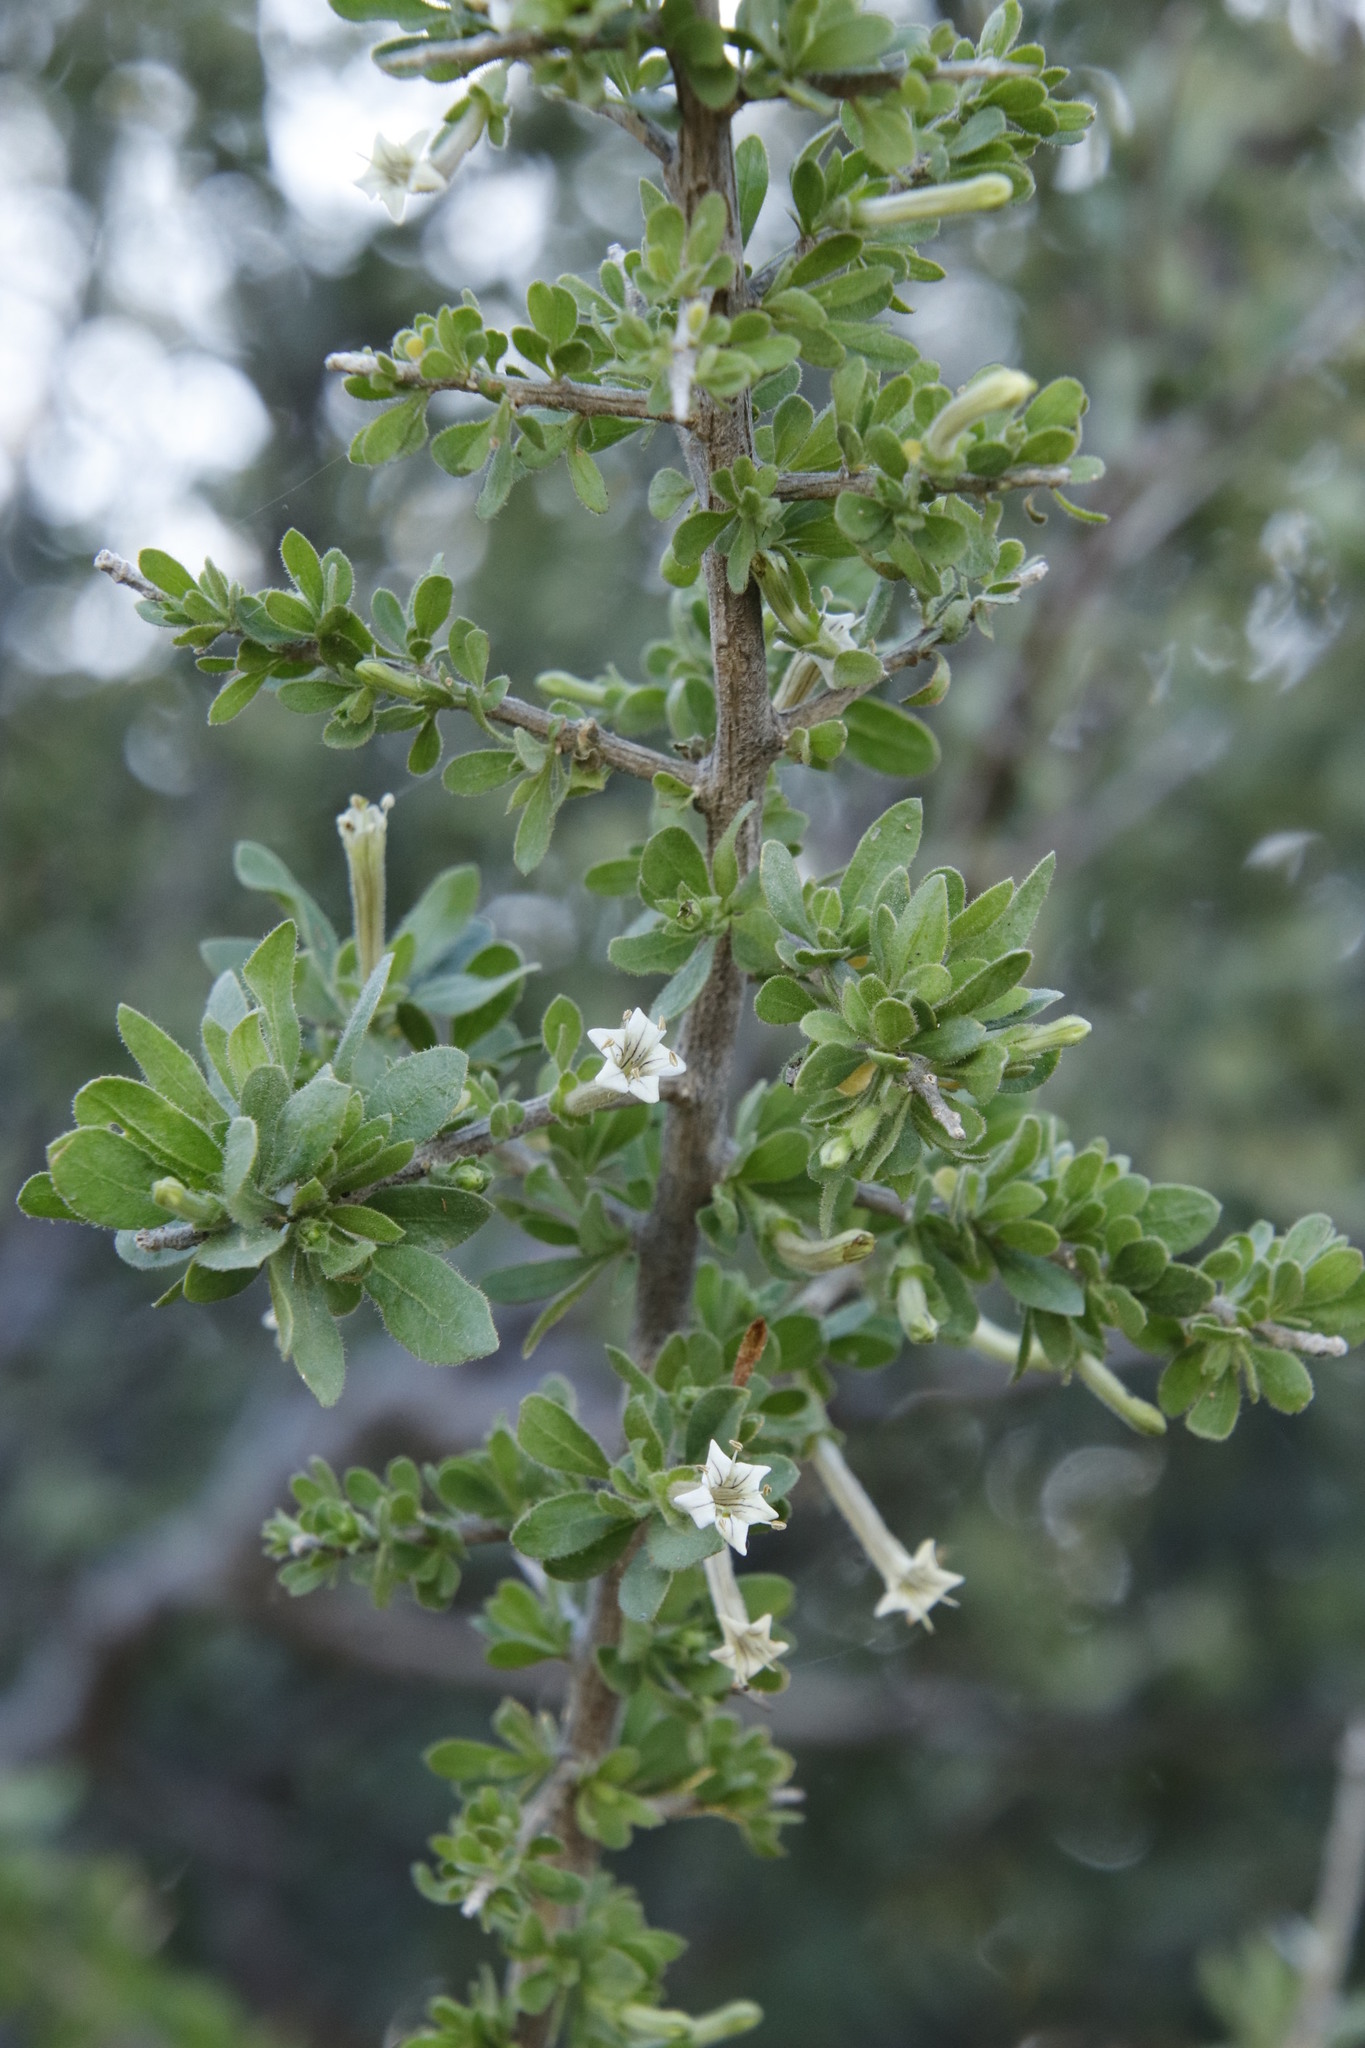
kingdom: Plantae
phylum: Tracheophyta
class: Magnoliopsida
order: Solanales
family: Solanaceae
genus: Lycium
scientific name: Lycium hirsutum
